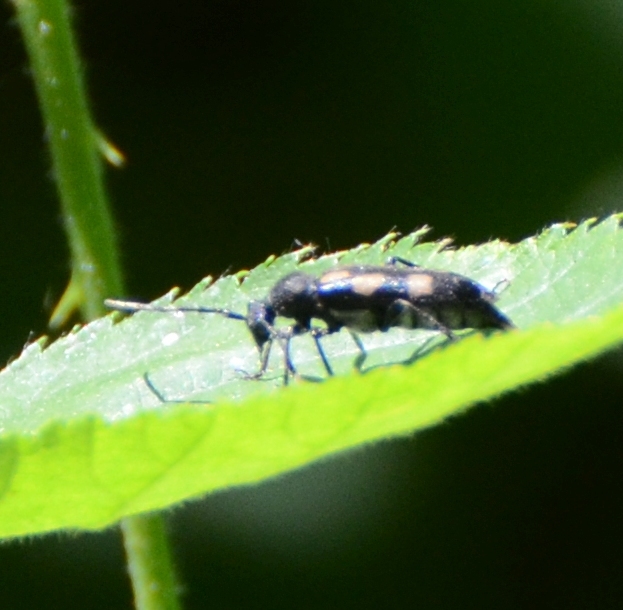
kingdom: Animalia
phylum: Arthropoda
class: Insecta
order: Coleoptera
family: Cerambycidae
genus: Anoplodera
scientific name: Anoplodera sexguttata
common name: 6 spotted longhorn
